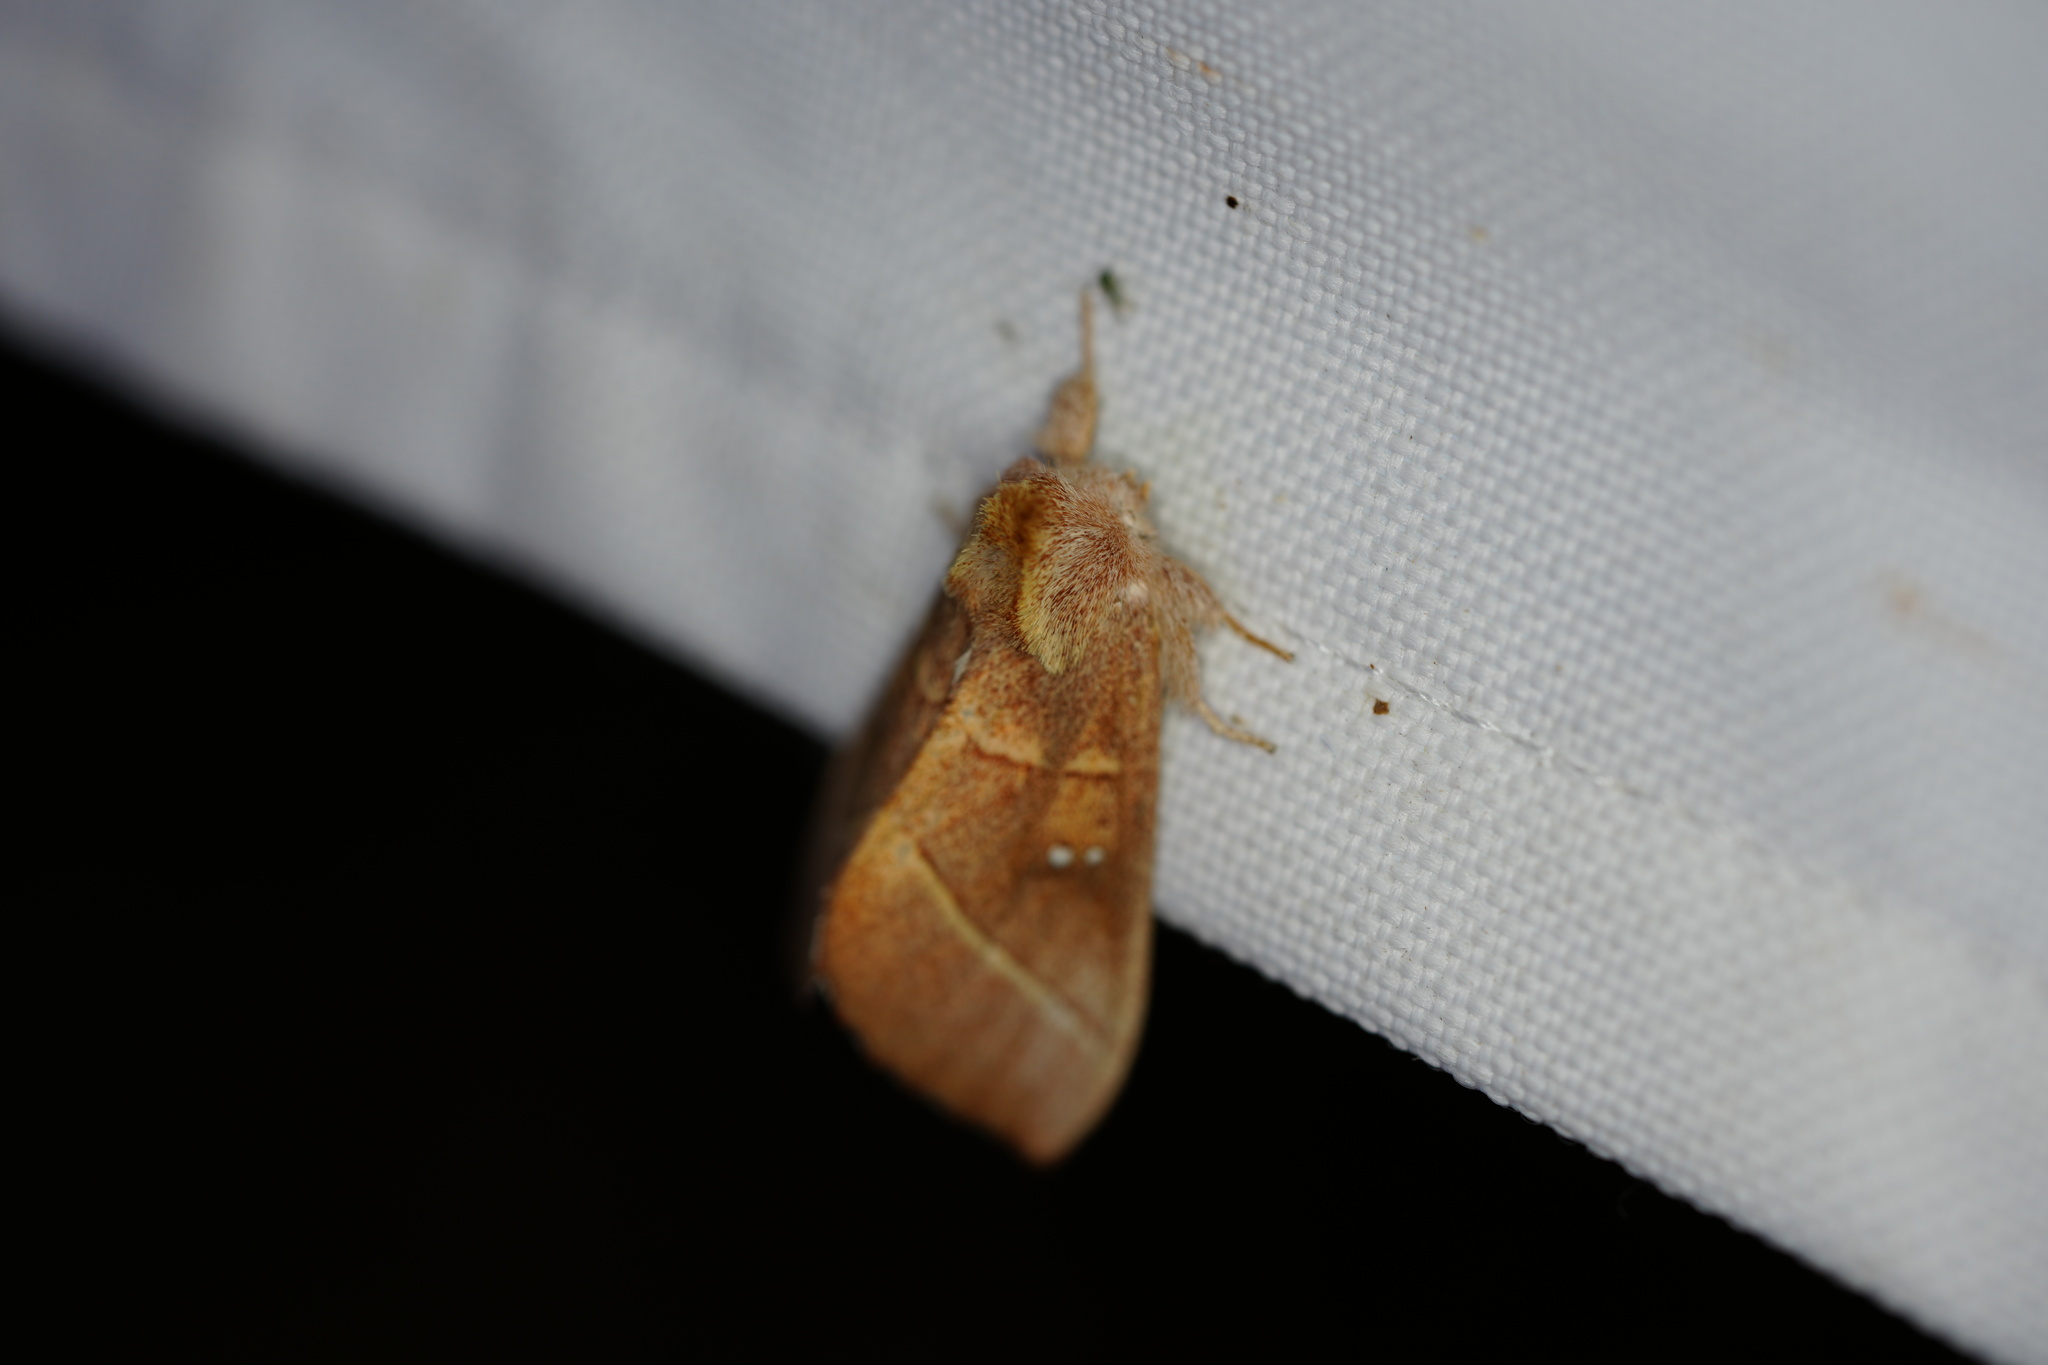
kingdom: Animalia
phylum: Arthropoda
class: Insecta
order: Lepidoptera
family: Notodontidae
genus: Nadata
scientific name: Nadata gibbosa
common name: White-dotted prominent
